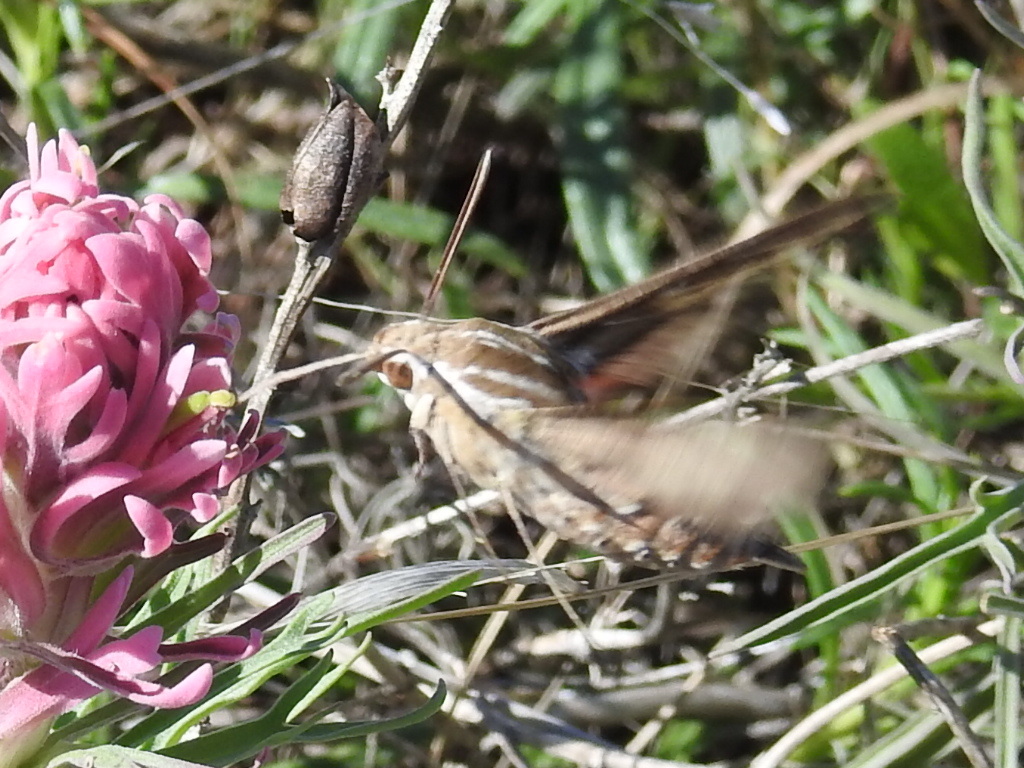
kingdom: Animalia
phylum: Arthropoda
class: Insecta
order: Lepidoptera
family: Sphingidae
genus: Hyles
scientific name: Hyles lineata
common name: White-lined sphinx
